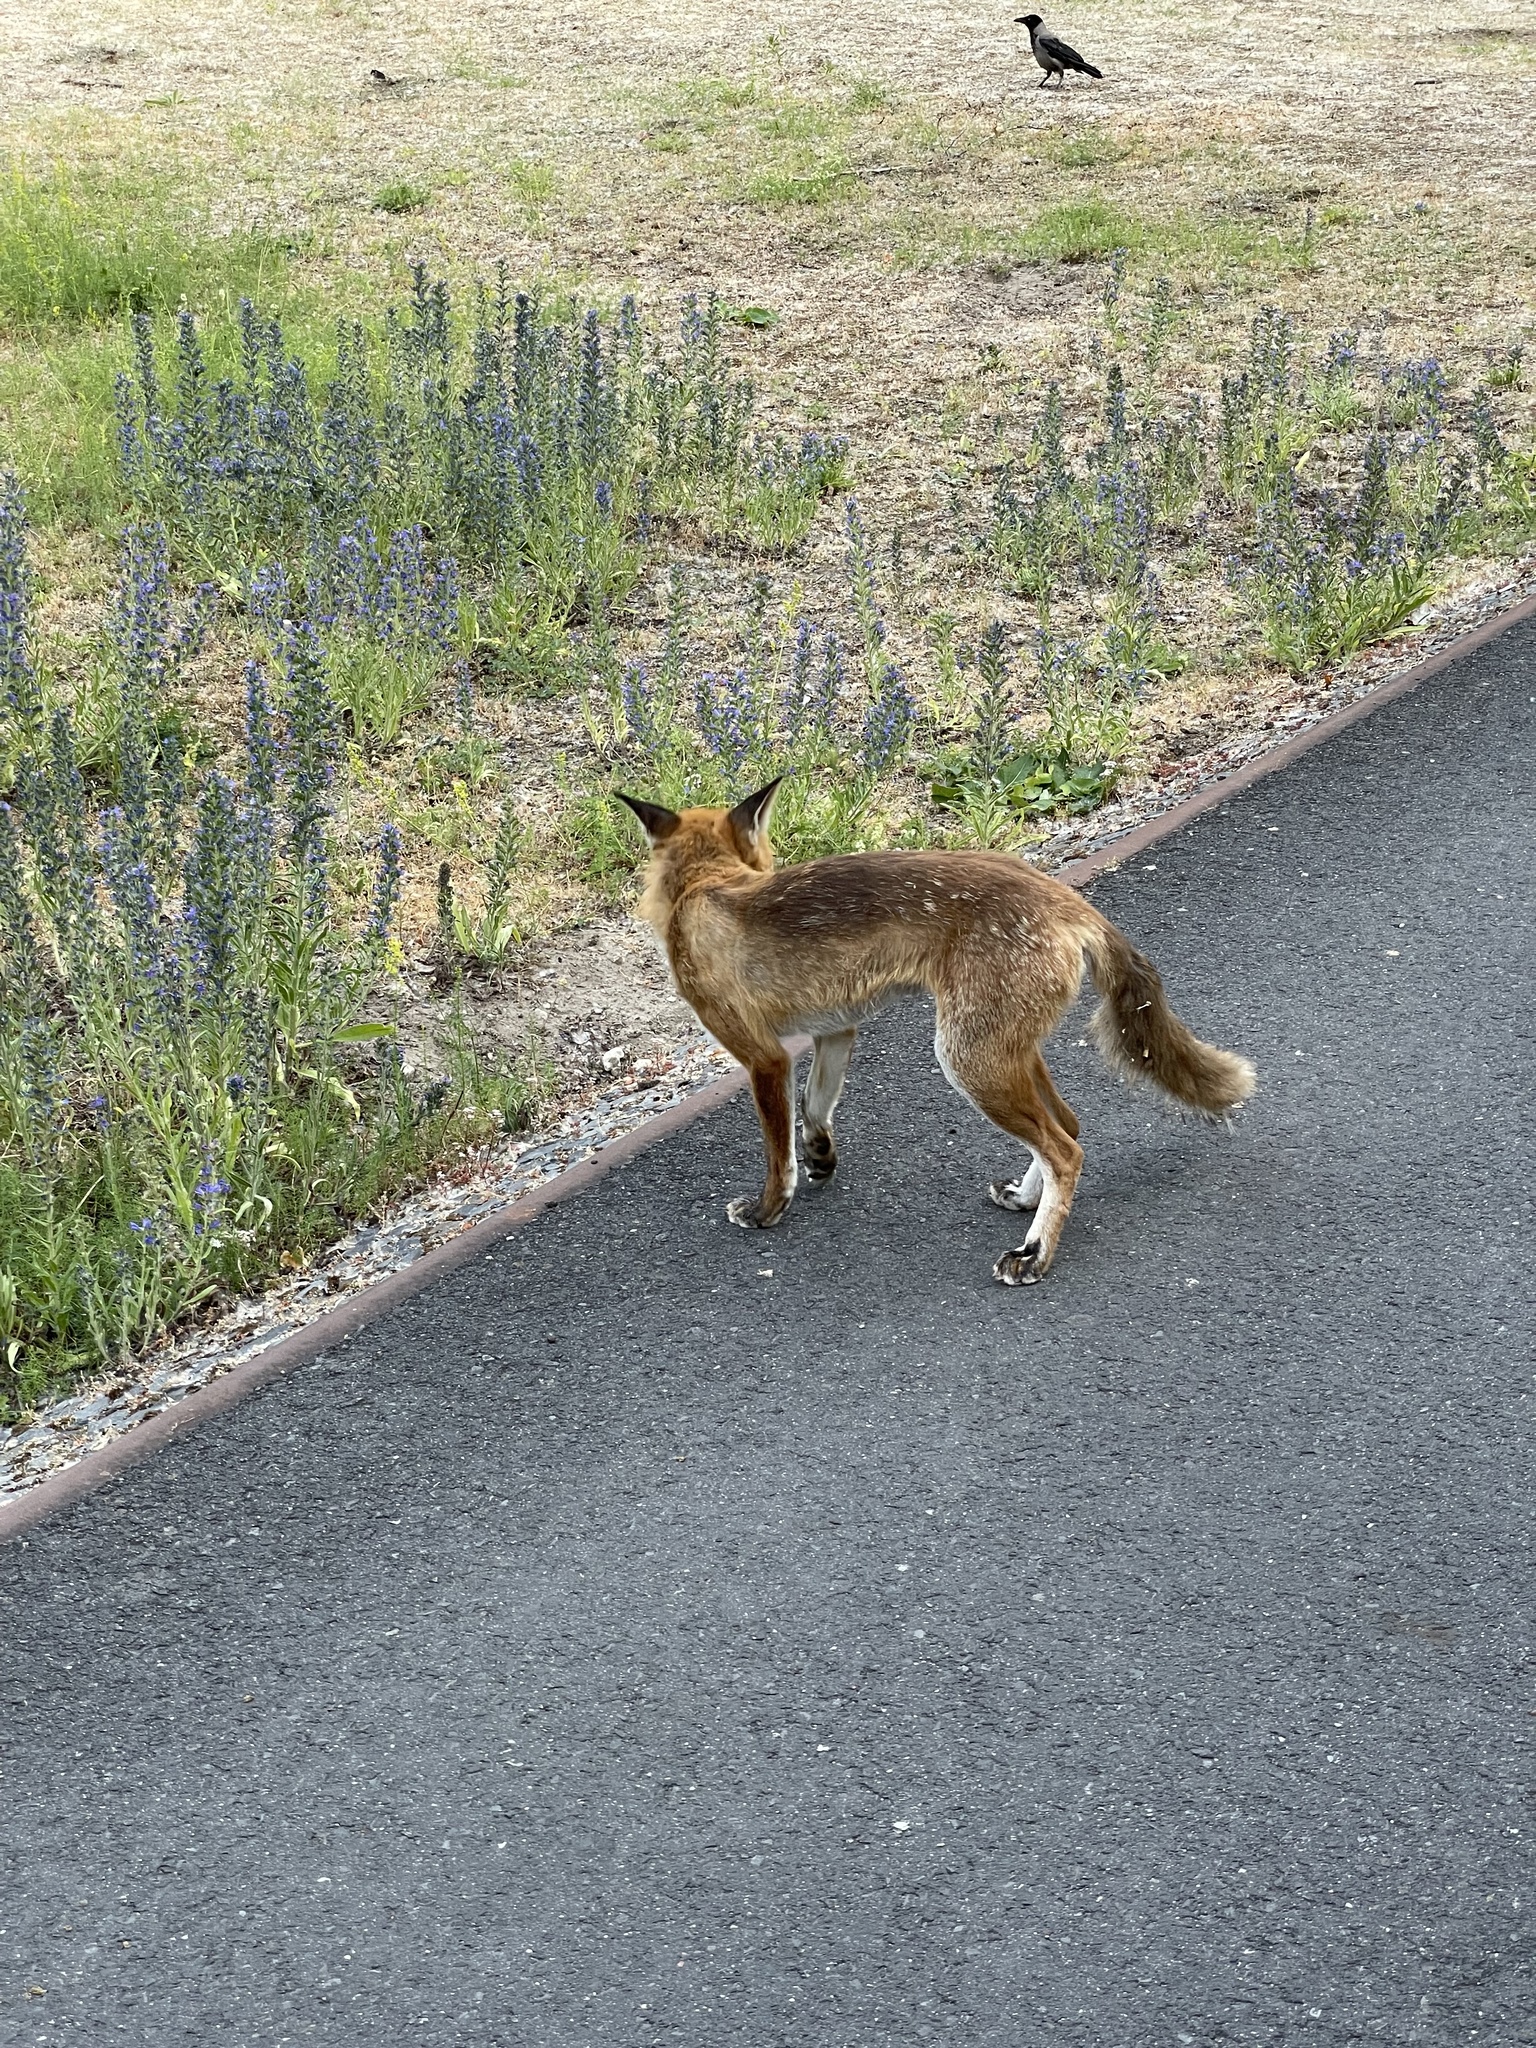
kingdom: Animalia
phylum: Chordata
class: Mammalia
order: Carnivora
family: Canidae
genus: Vulpes
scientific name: Vulpes vulpes
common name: Red fox
